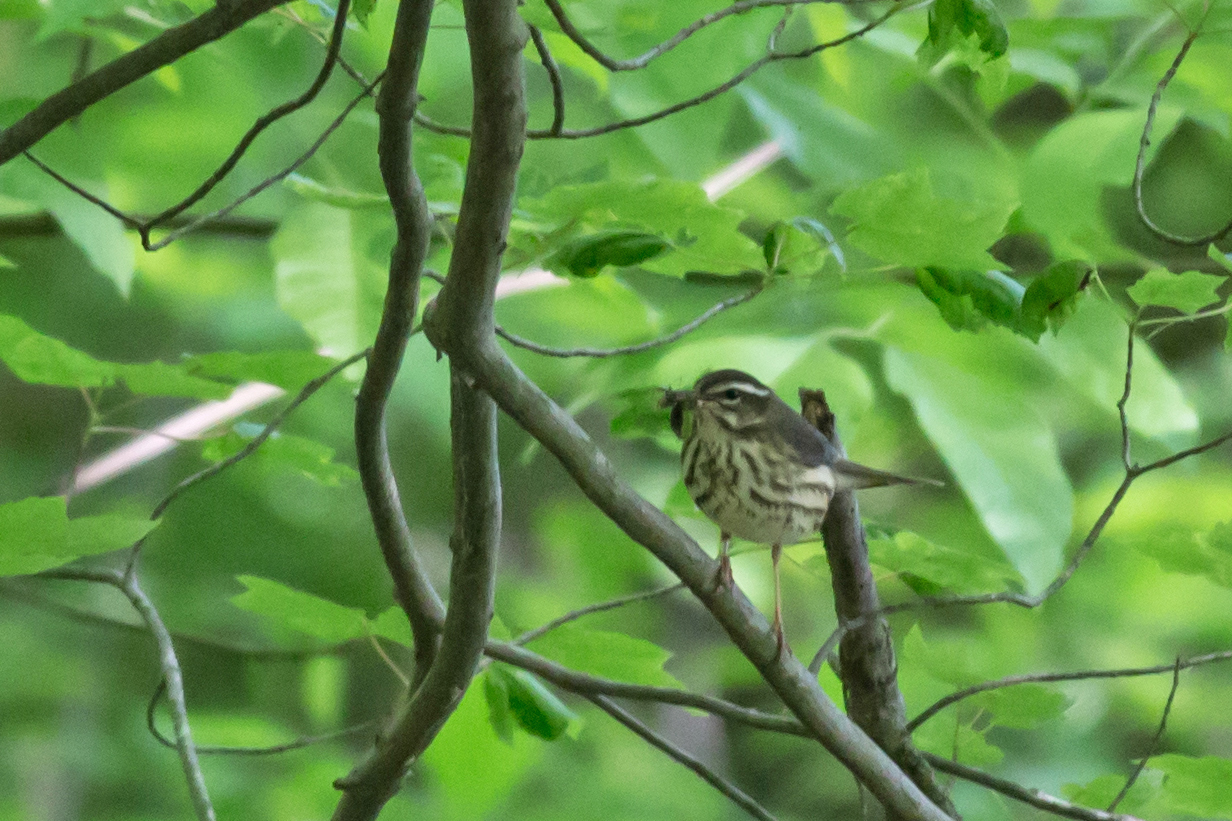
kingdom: Animalia
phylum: Chordata
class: Aves
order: Passeriformes
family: Parulidae
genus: Parkesia
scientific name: Parkesia motacilla
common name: Louisiana waterthrush
